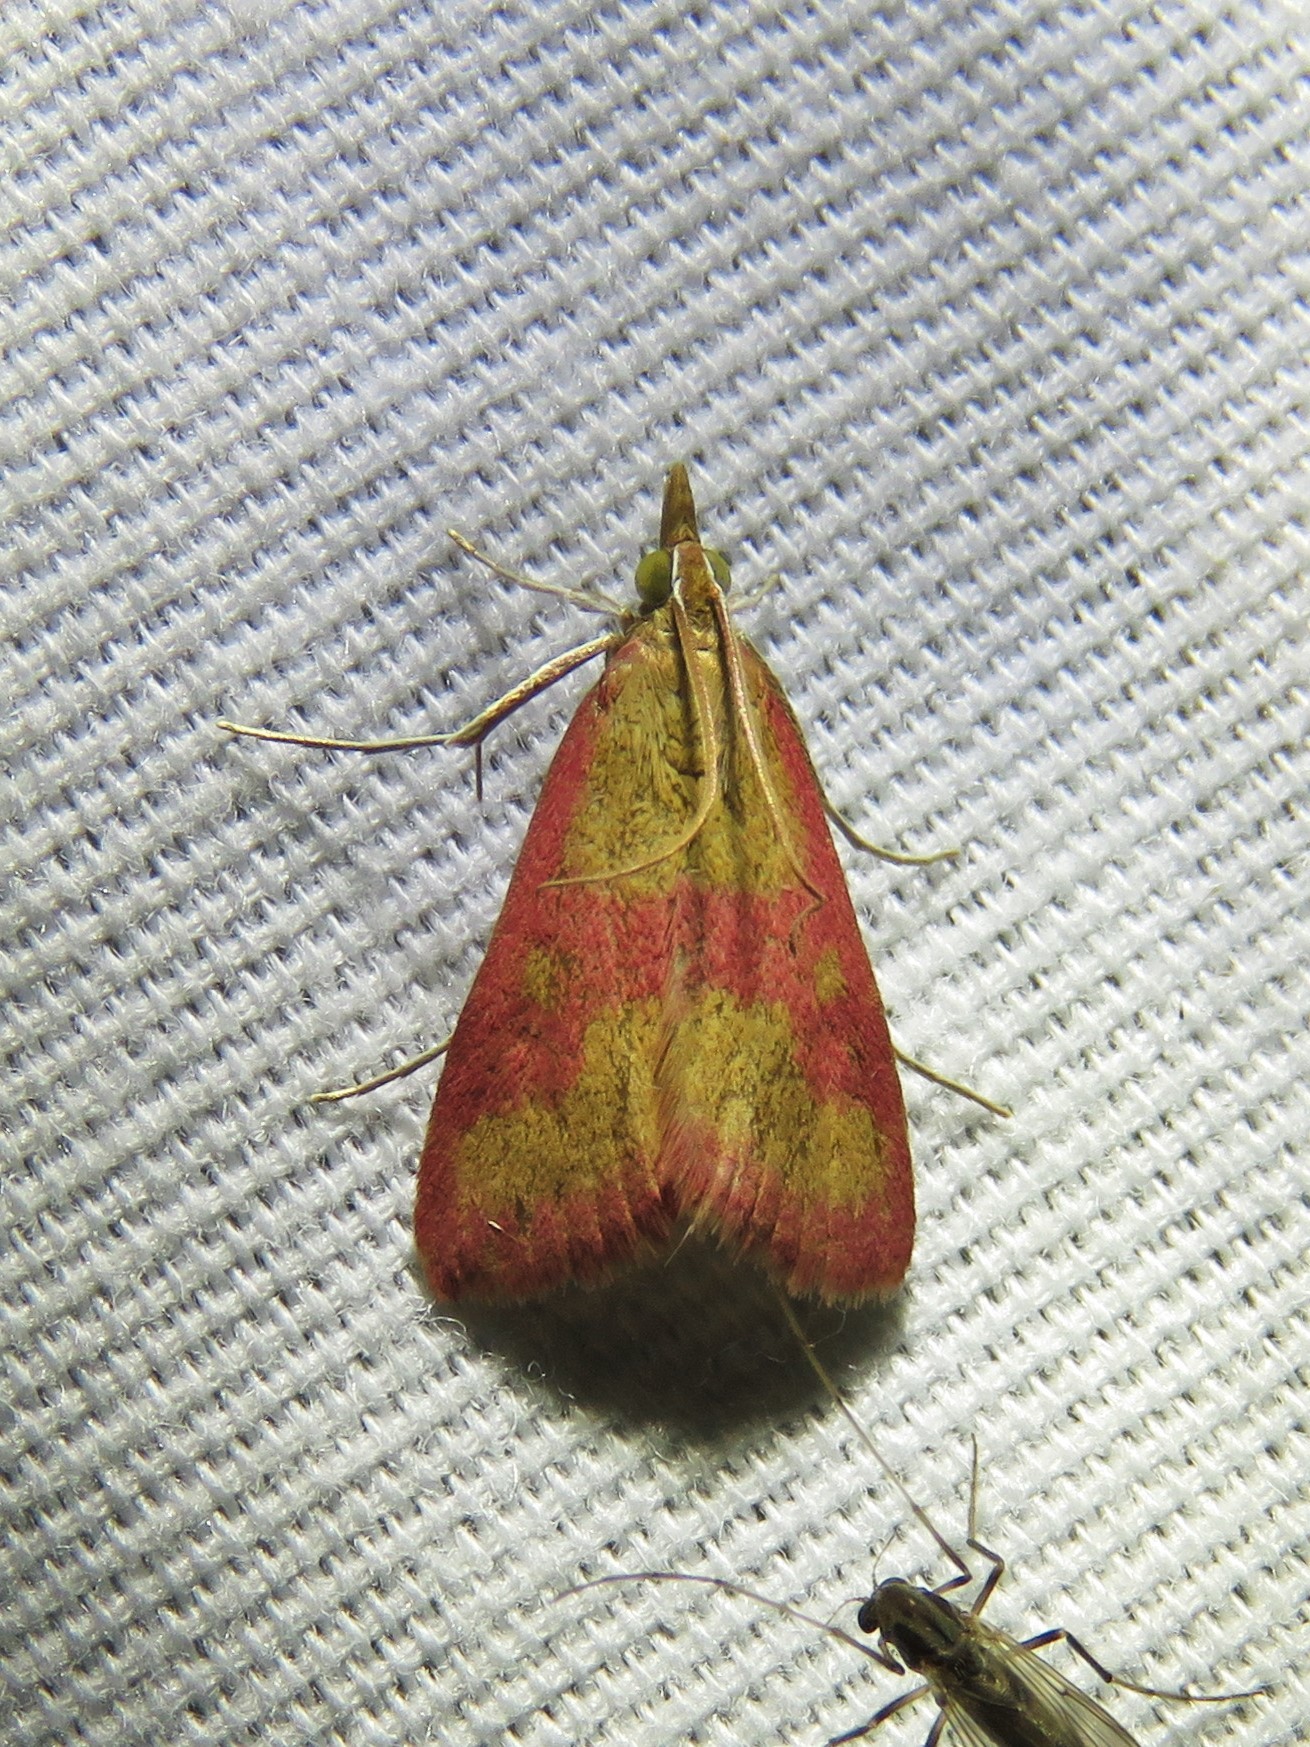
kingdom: Animalia
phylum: Arthropoda
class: Insecta
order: Lepidoptera
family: Crambidae
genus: Pyrausta
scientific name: Pyrausta laticlavia
